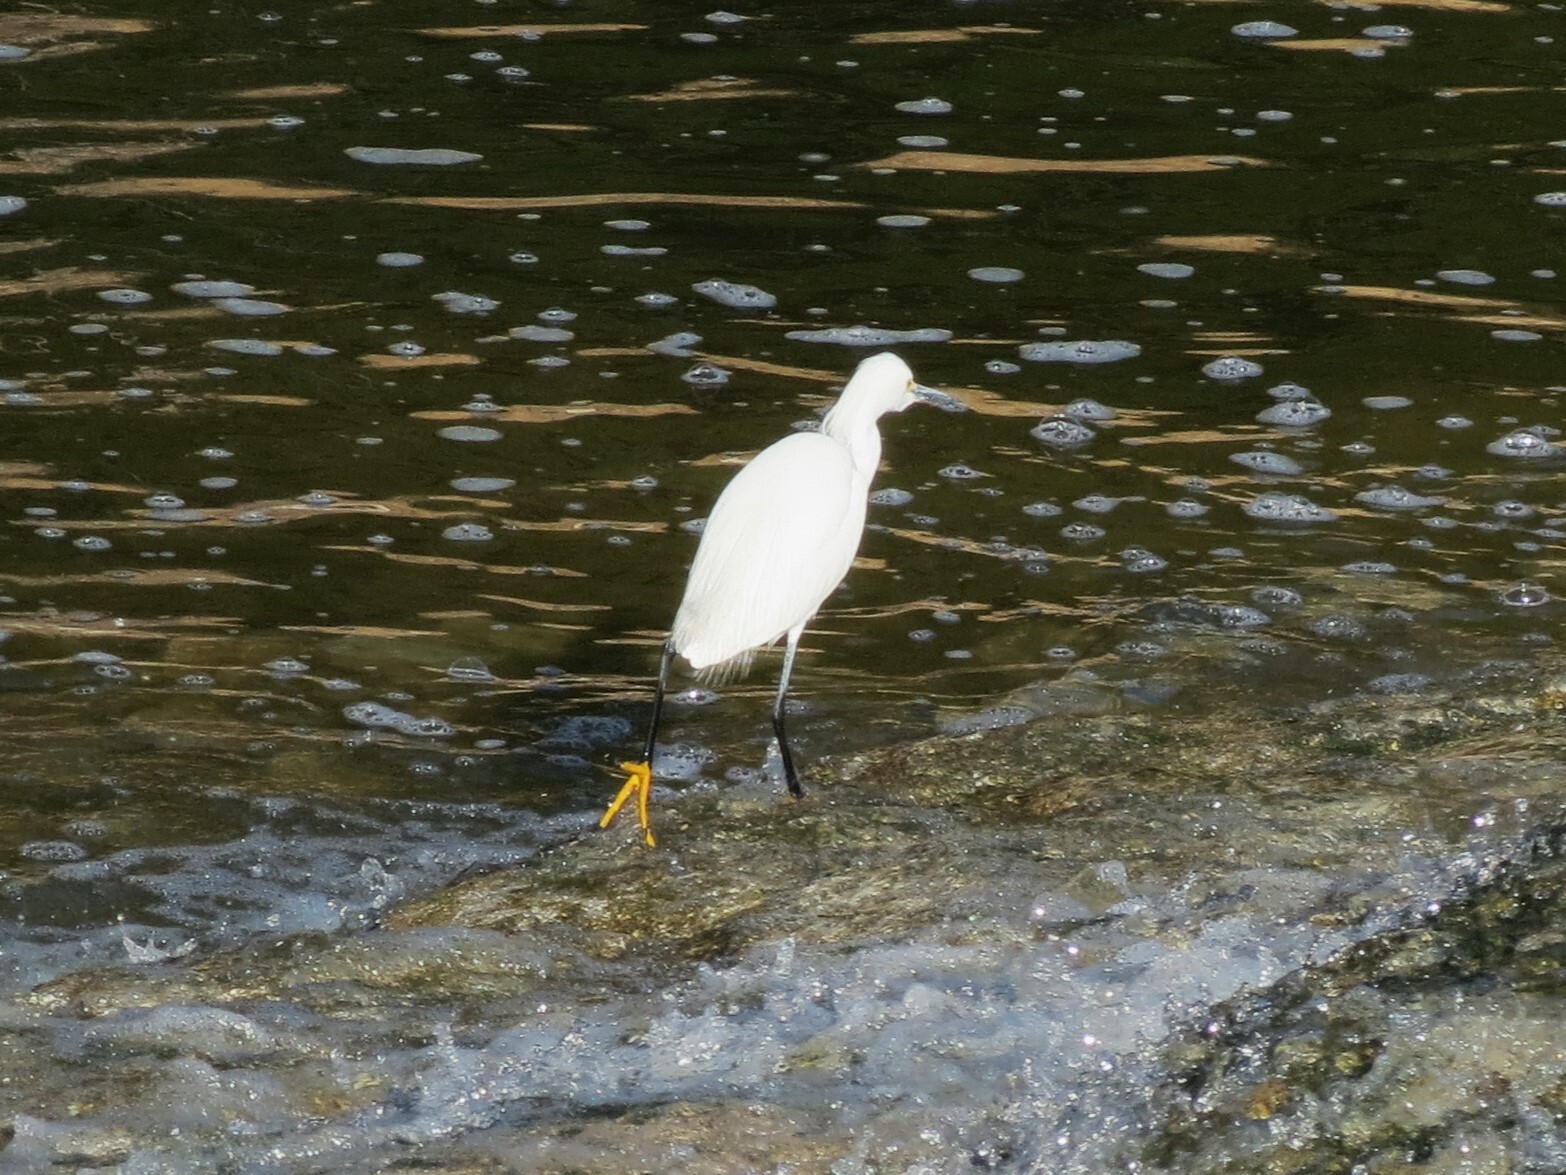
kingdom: Animalia
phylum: Chordata
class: Aves
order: Pelecaniformes
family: Ardeidae
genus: Egretta
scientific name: Egretta thula
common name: Snowy egret
